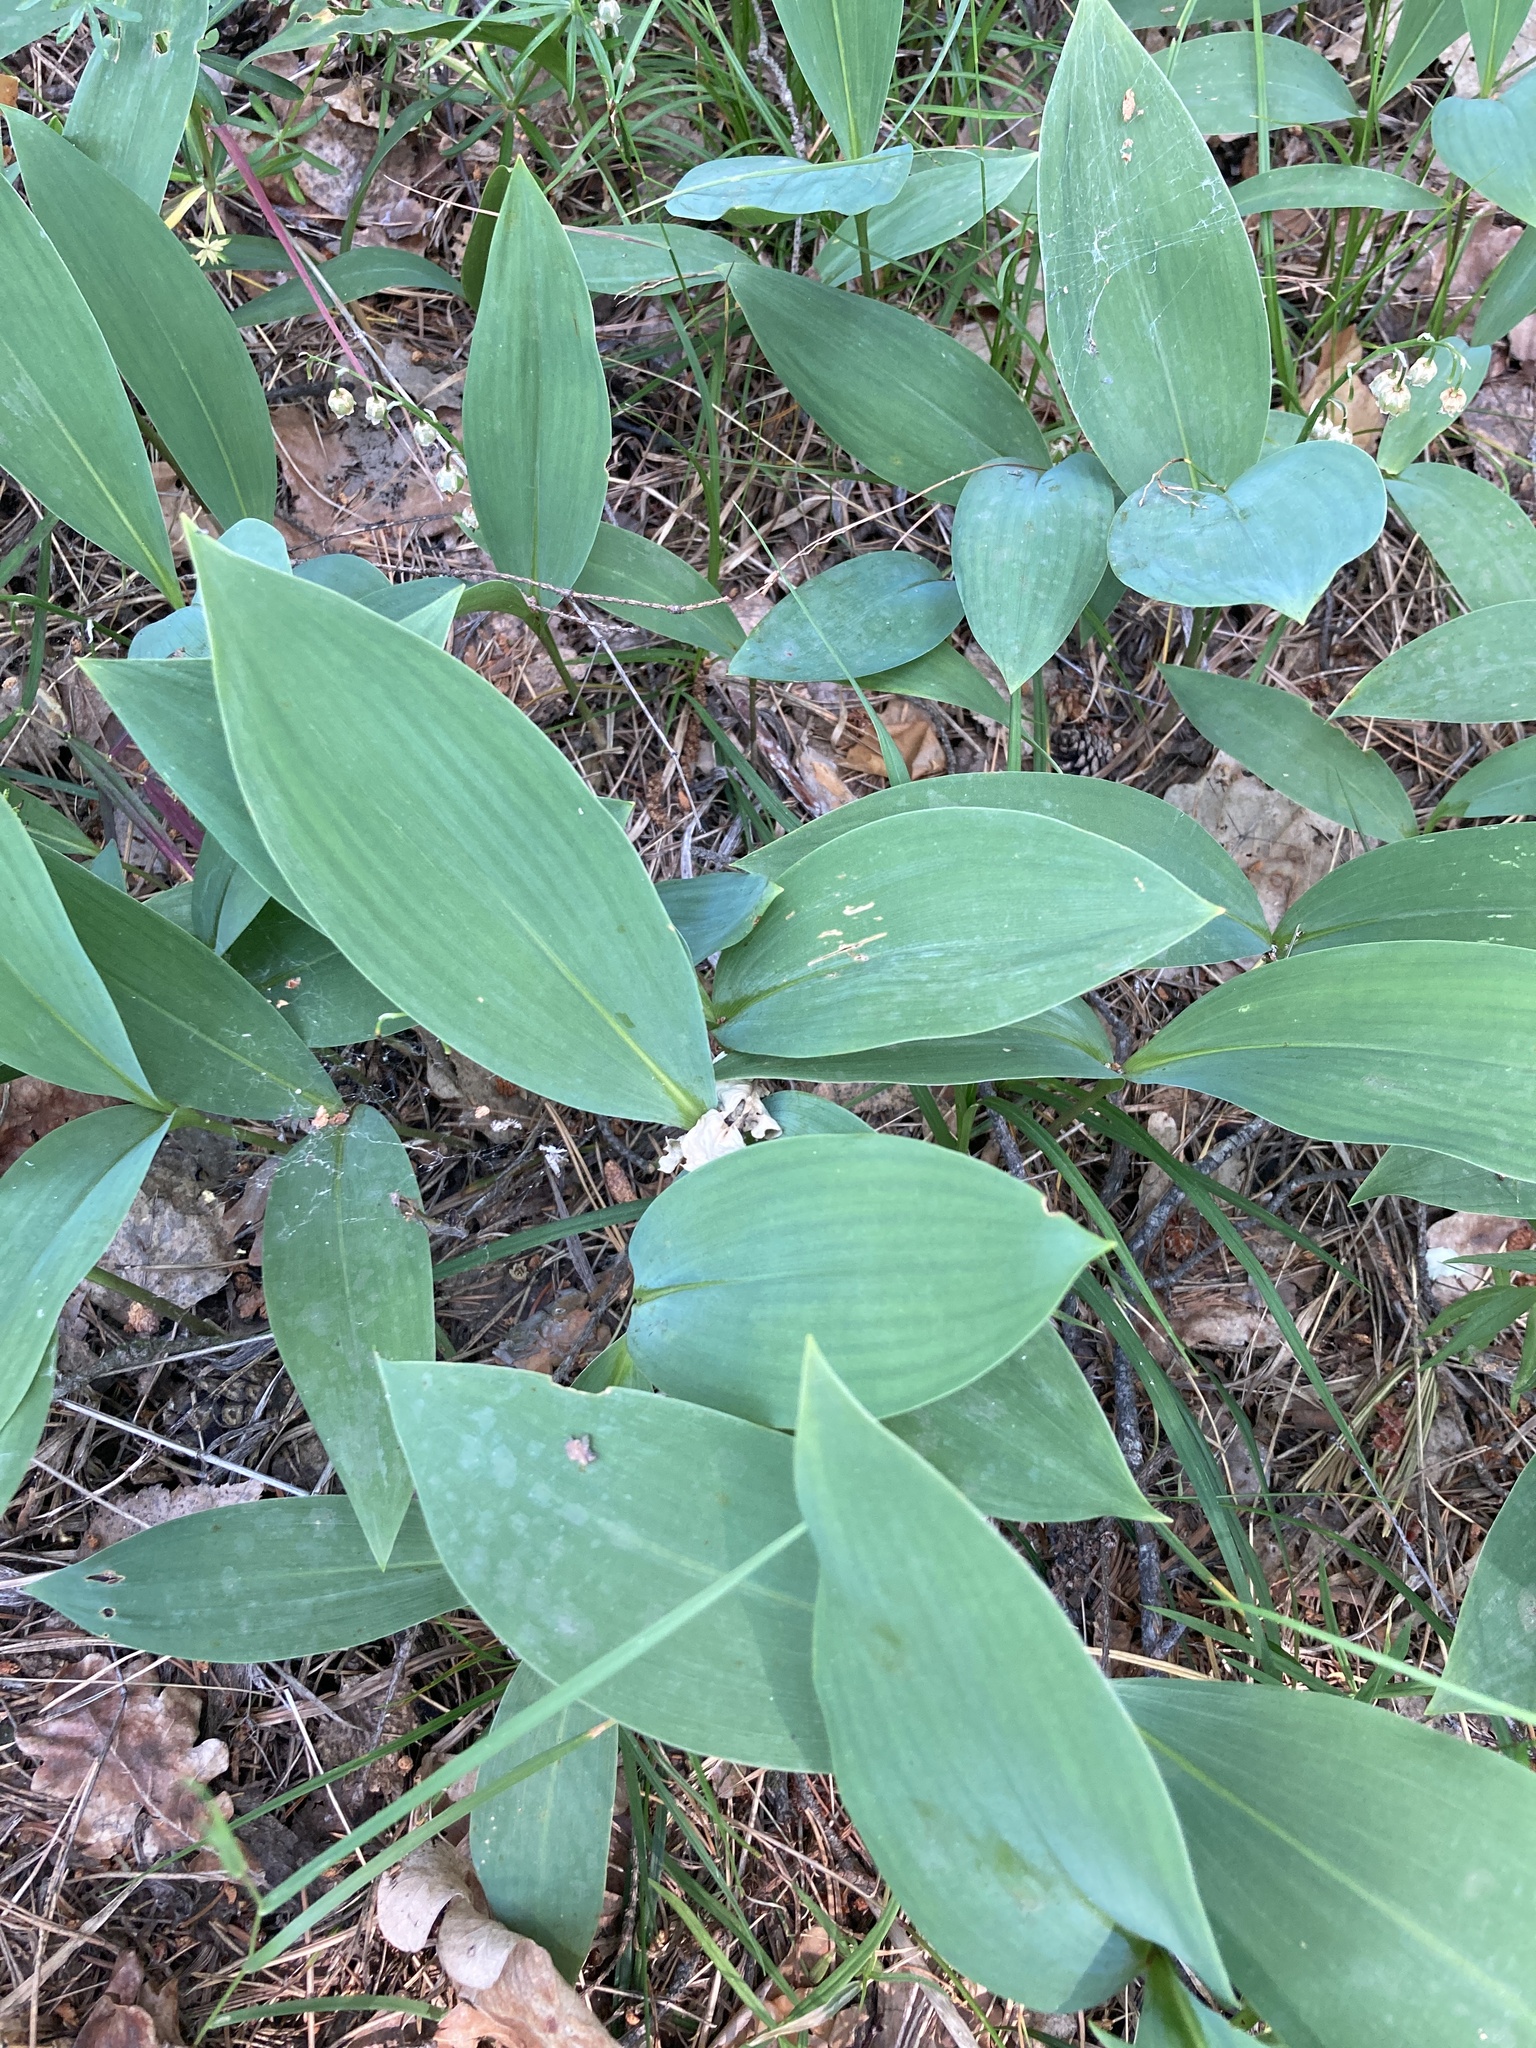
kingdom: Plantae
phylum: Tracheophyta
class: Liliopsida
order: Asparagales
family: Asparagaceae
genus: Convallaria
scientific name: Convallaria majalis
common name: Lily-of-the-valley
